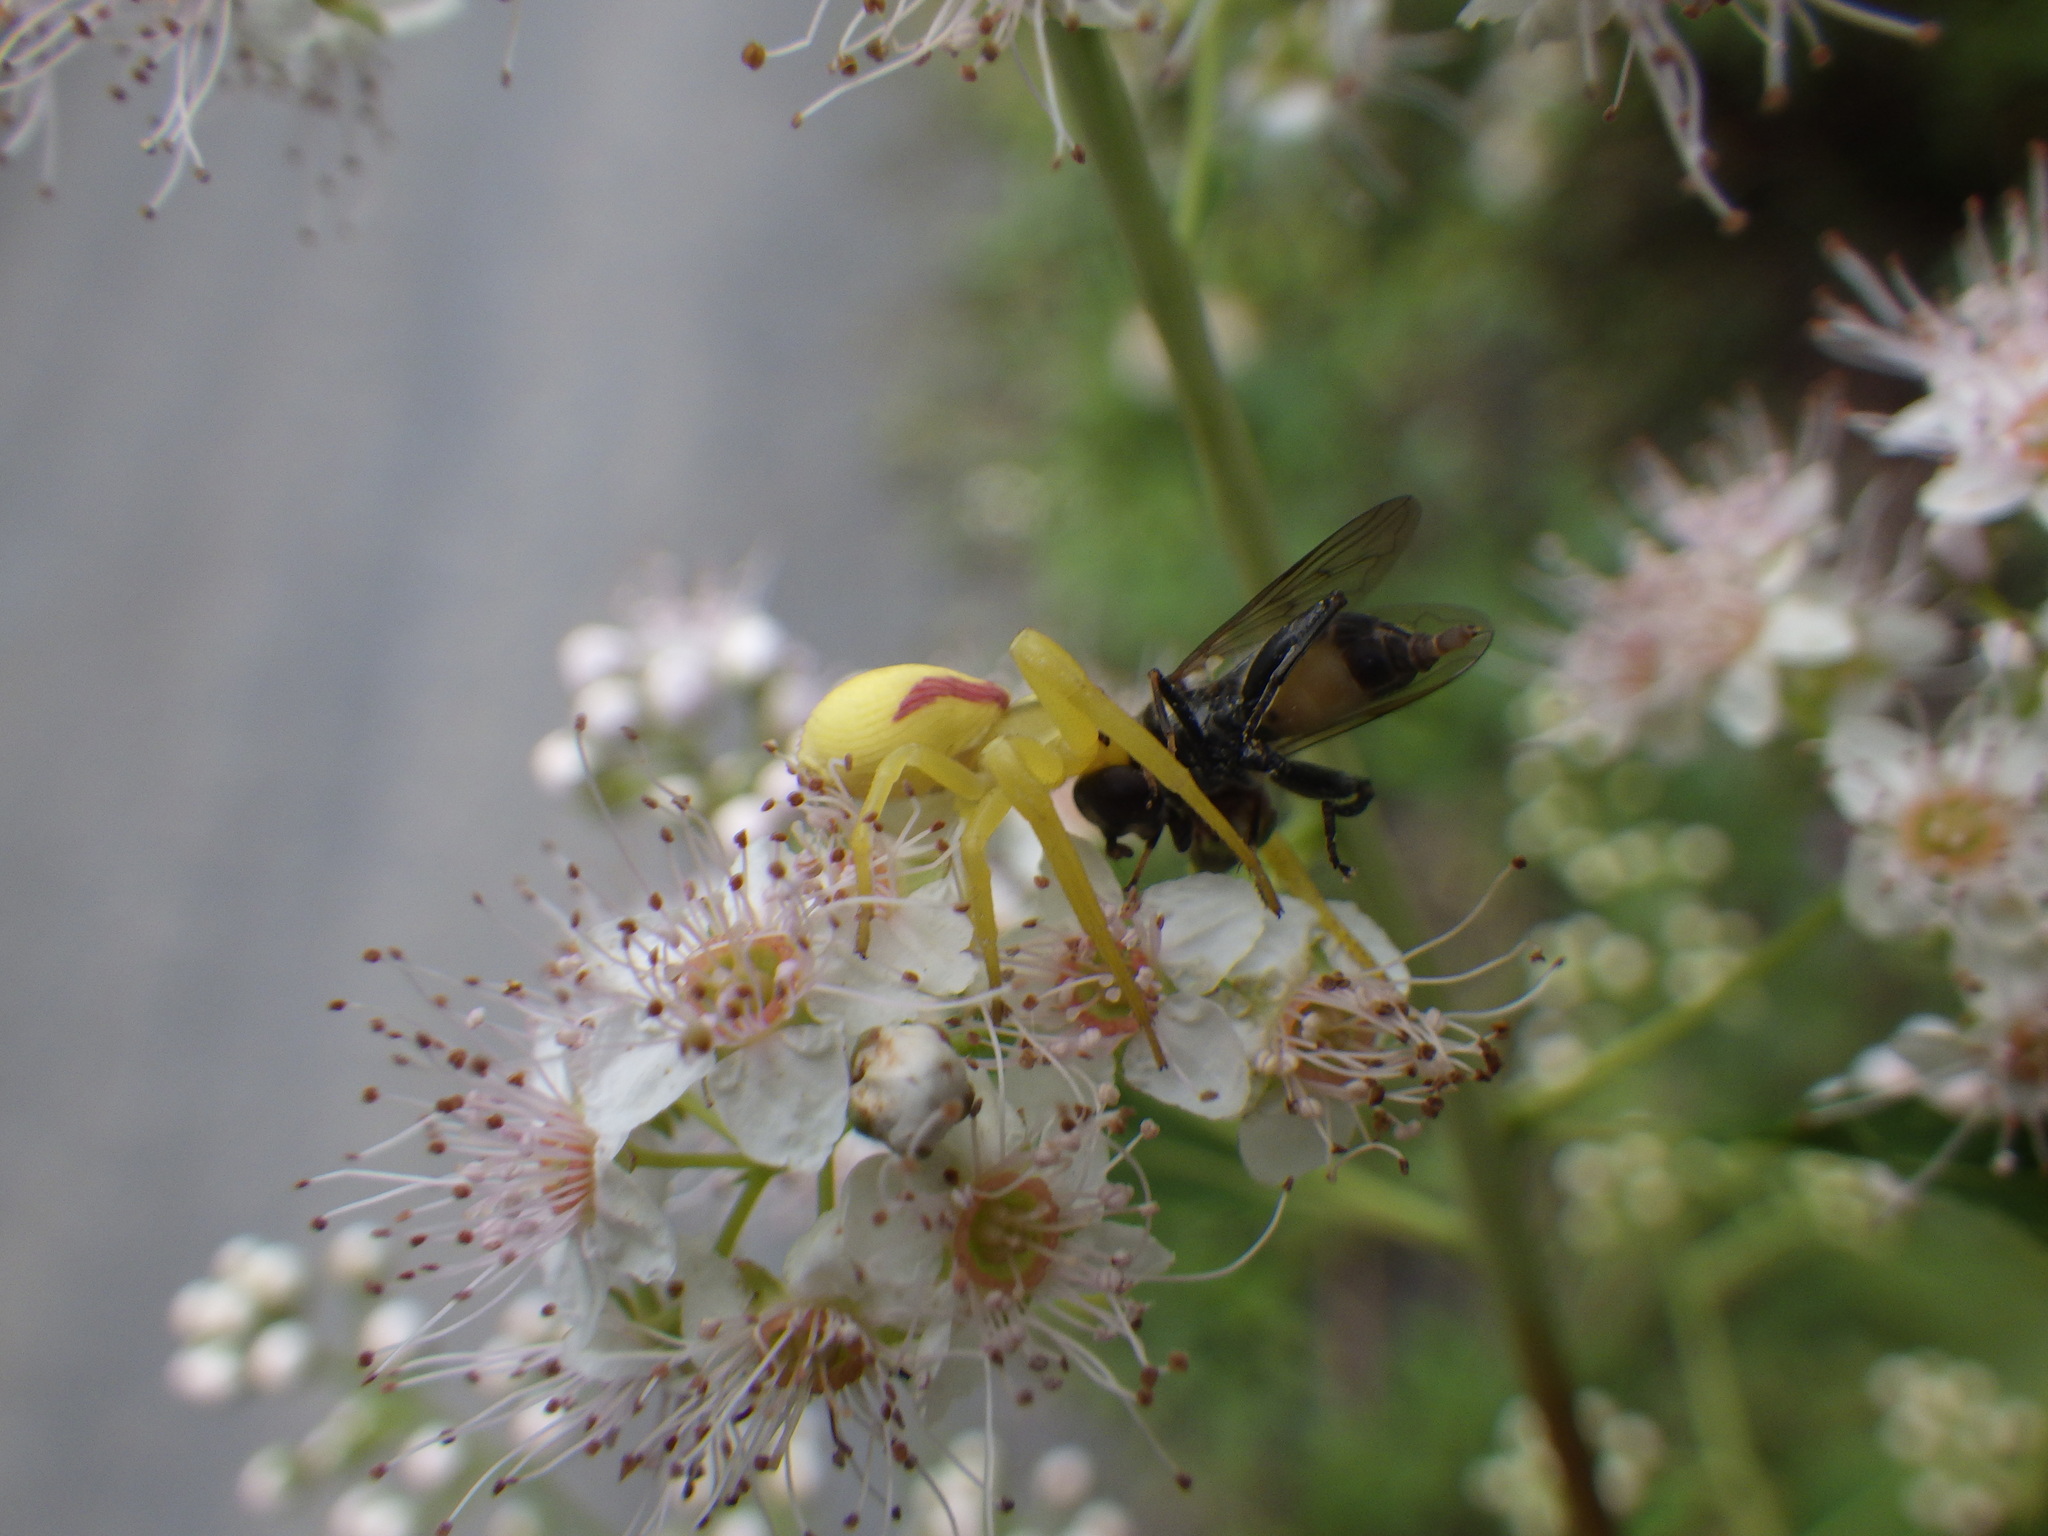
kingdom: Animalia
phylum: Arthropoda
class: Arachnida
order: Araneae
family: Thomisidae
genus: Misumena
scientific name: Misumena vatia
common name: Goldenrod crab spider
